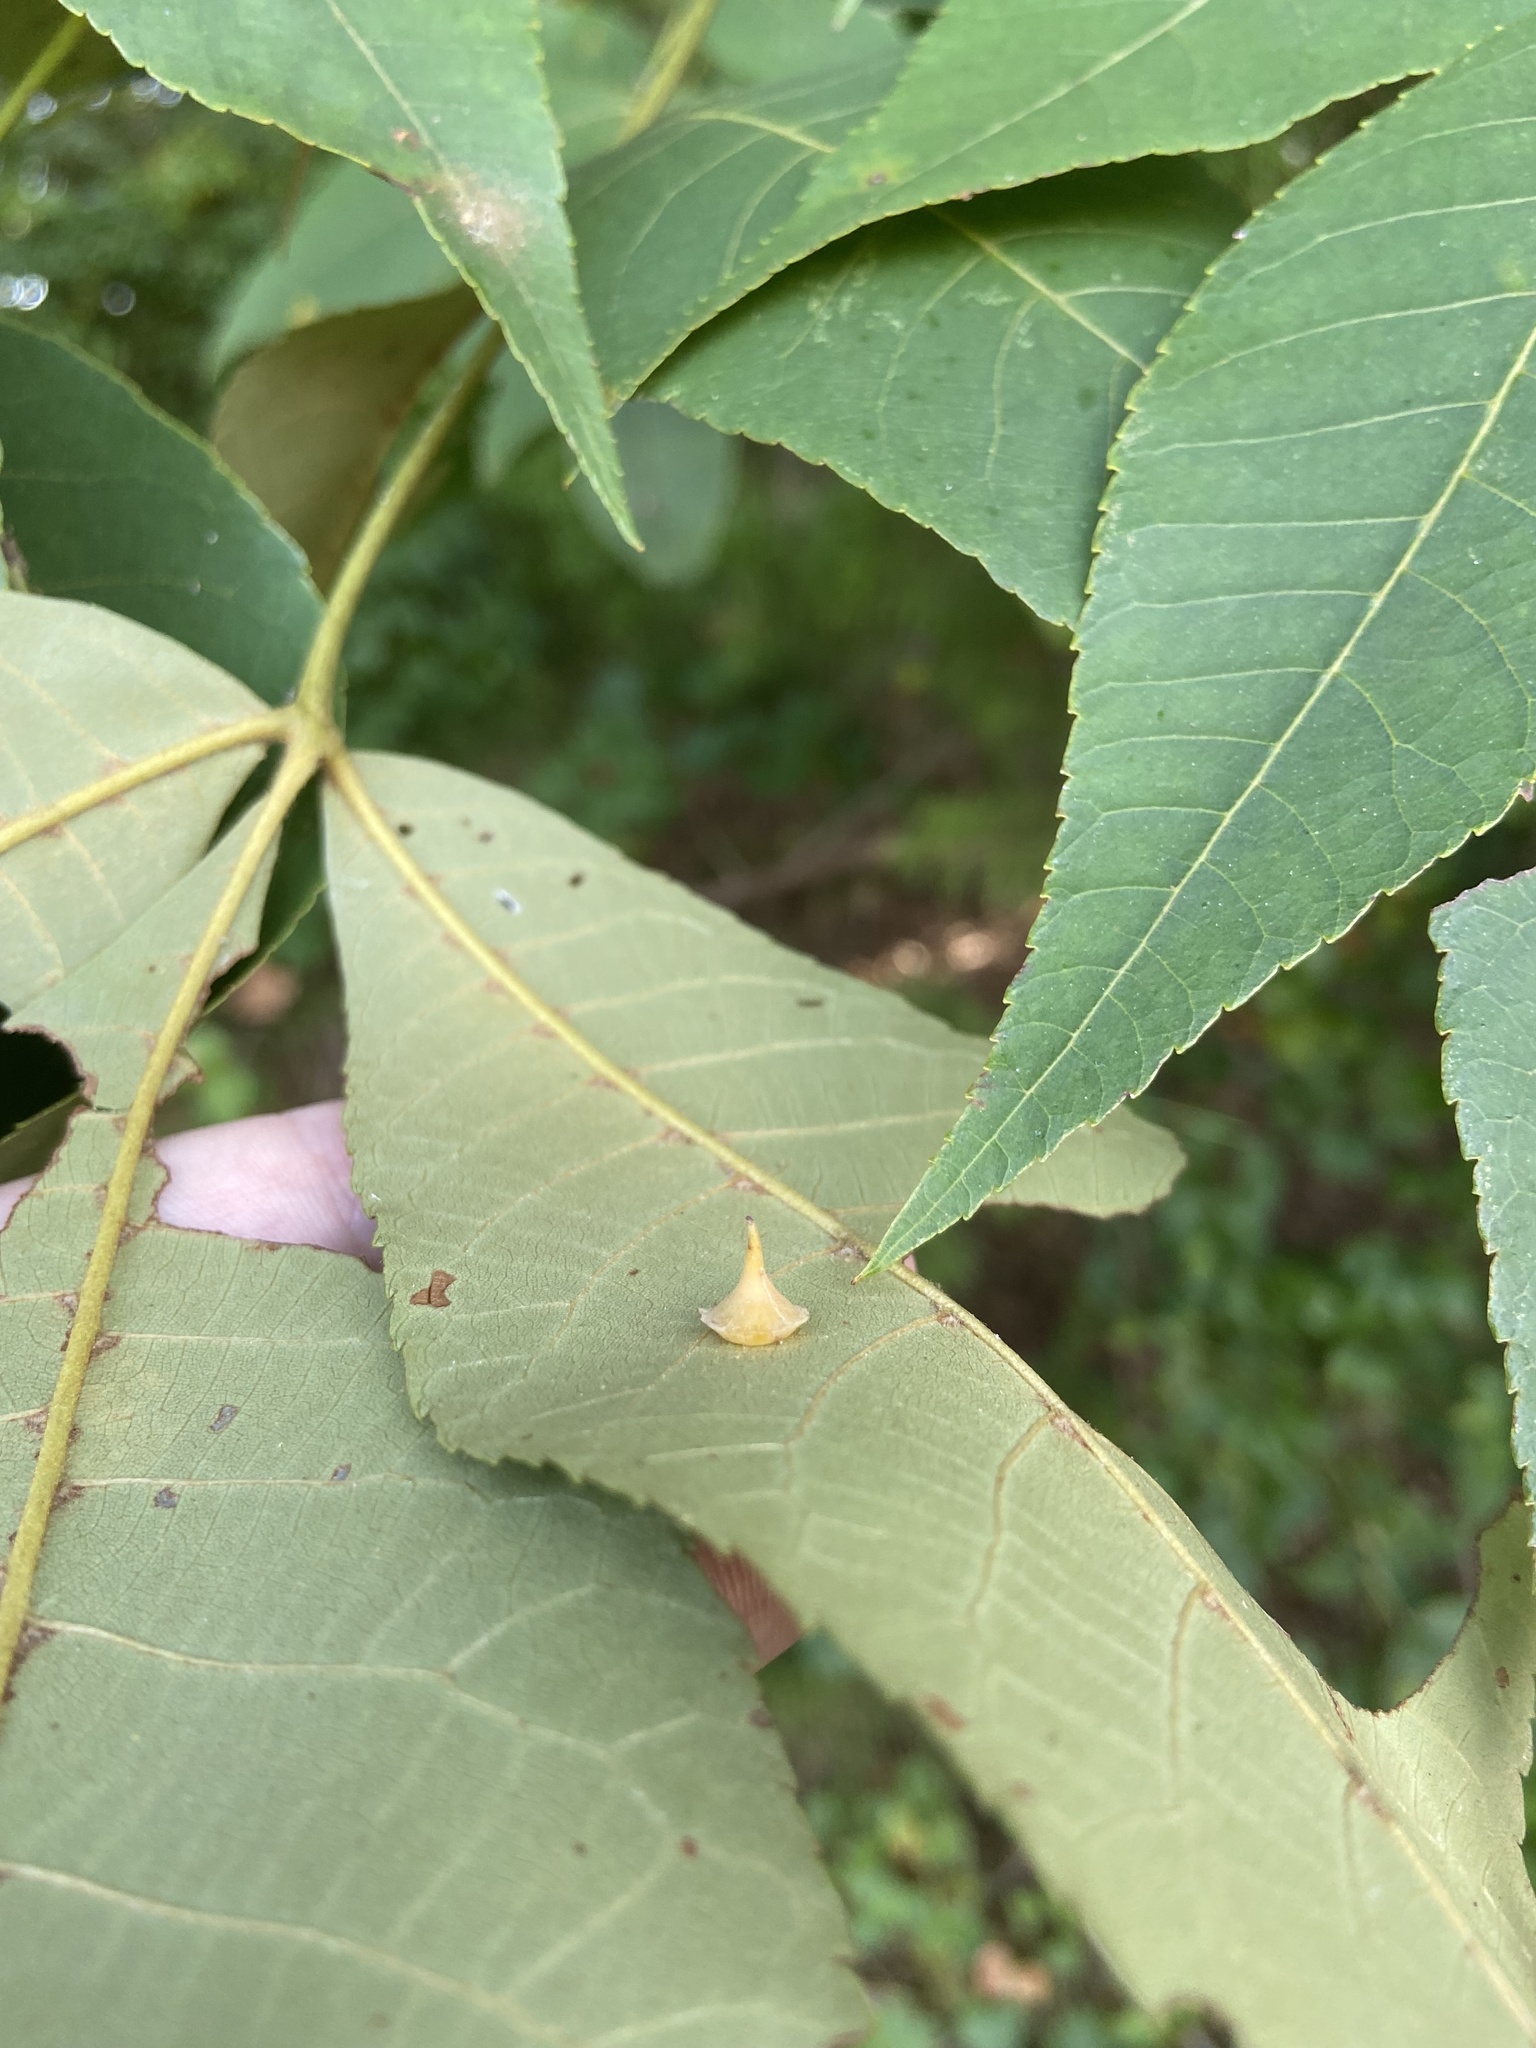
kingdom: Animalia
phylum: Arthropoda
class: Insecta
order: Diptera
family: Cecidomyiidae
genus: Caryomyia
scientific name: Caryomyia sanguinolenta
